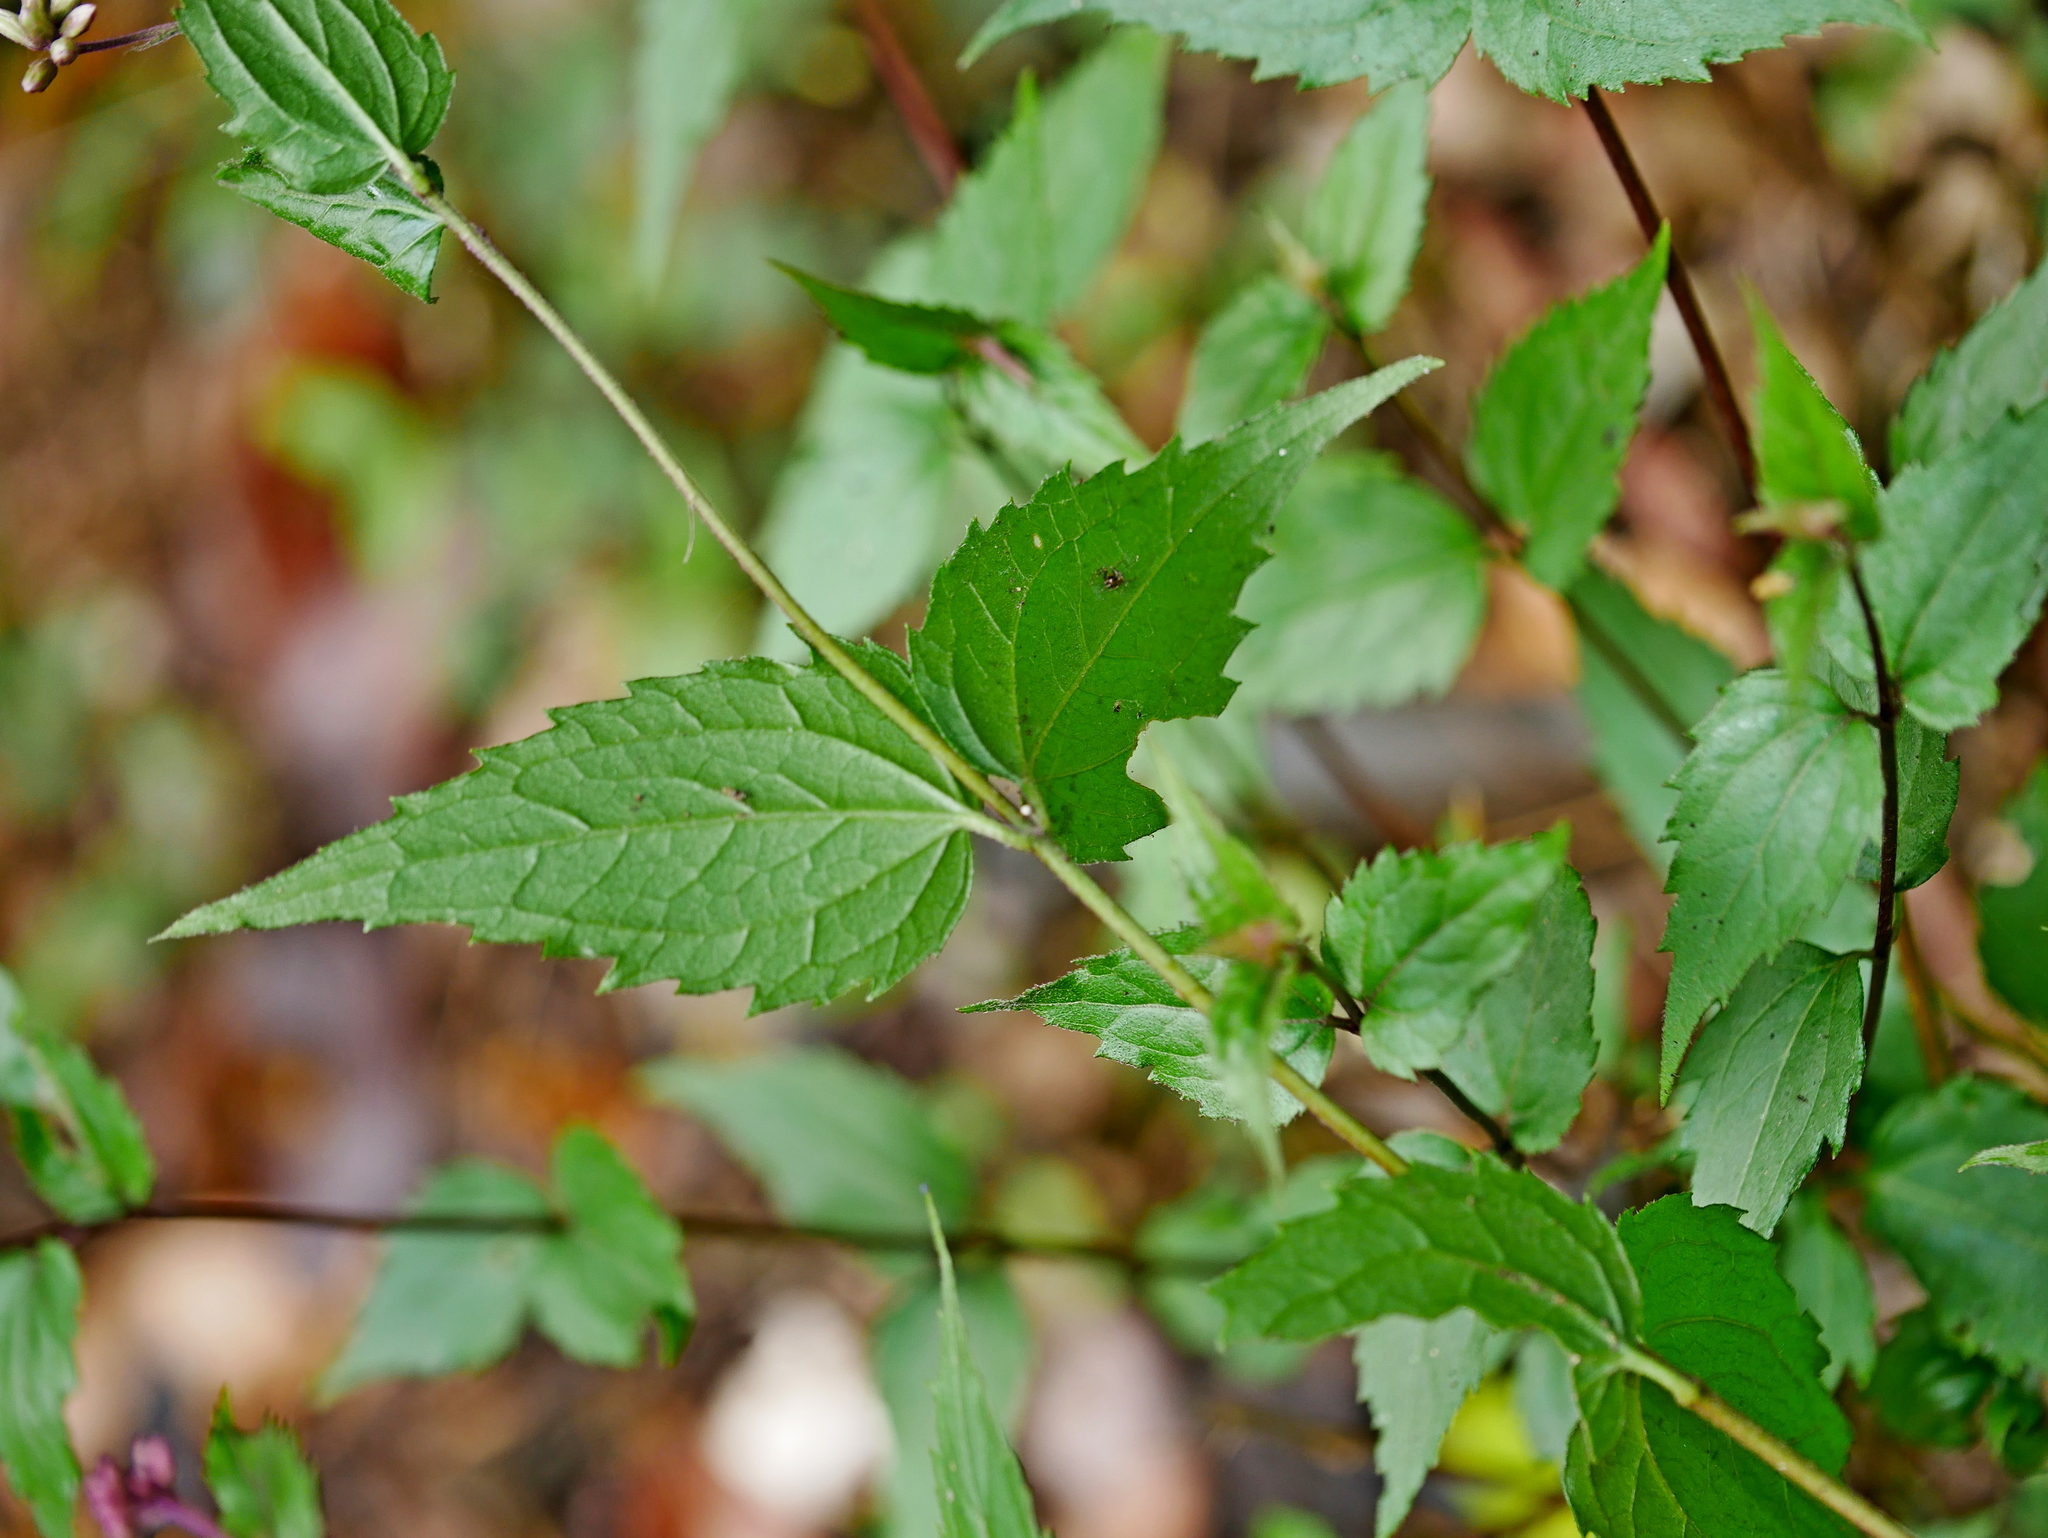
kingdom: Plantae
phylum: Tracheophyta
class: Magnoliopsida
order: Asterales
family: Asteraceae
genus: Eupatorium
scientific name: Eupatorium tashiroi
